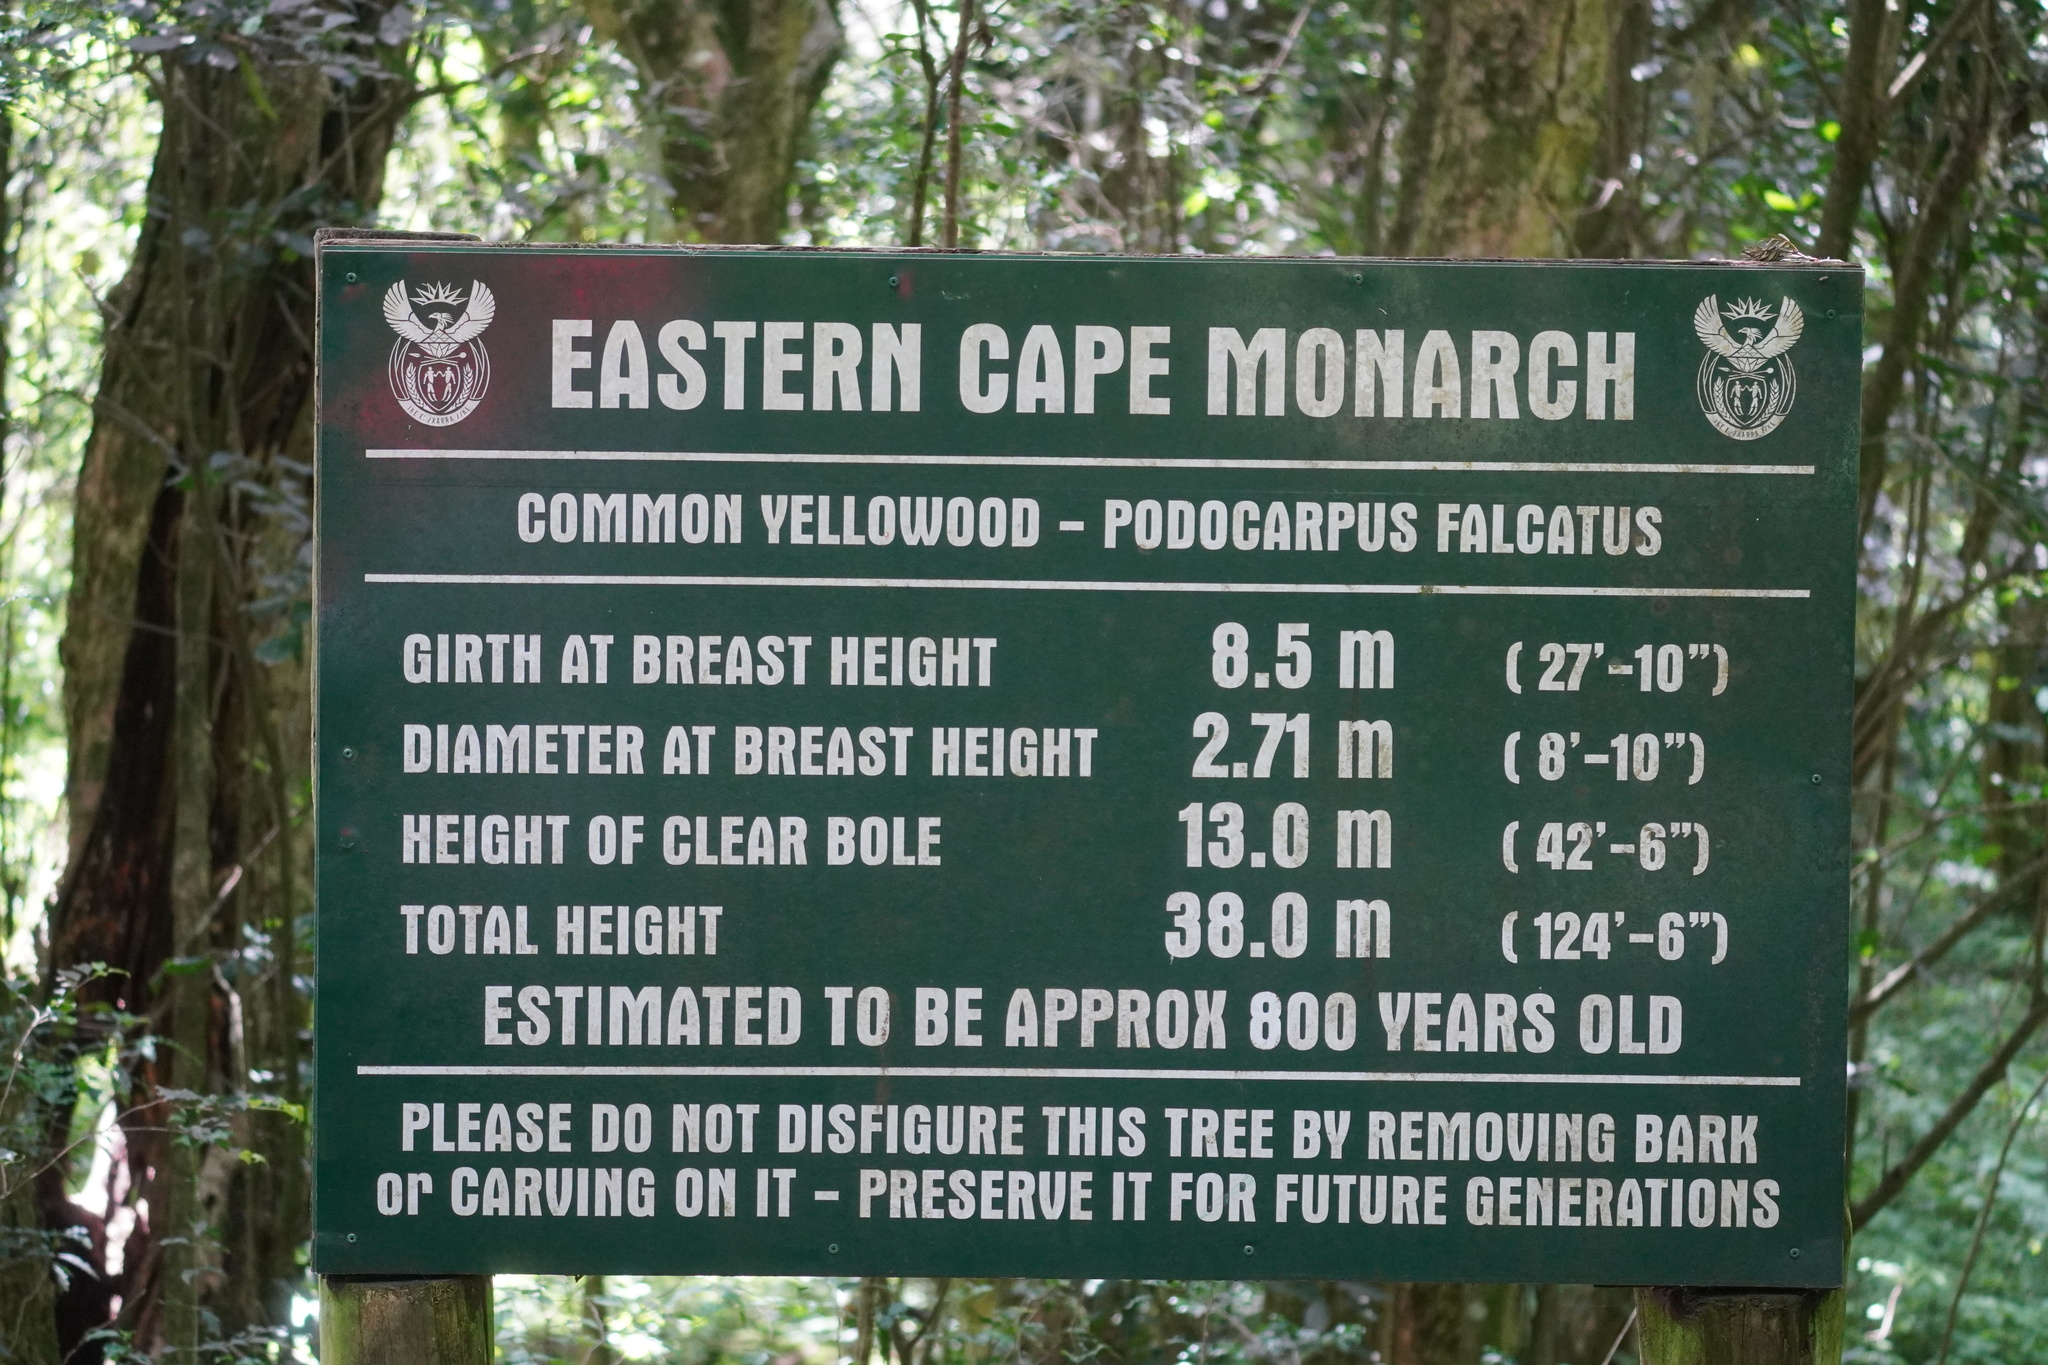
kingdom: Plantae
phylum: Tracheophyta
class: Pinopsida
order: Pinales
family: Podocarpaceae
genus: Afrocarpus
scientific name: Afrocarpus falcatus
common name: Bastard yellowwood
